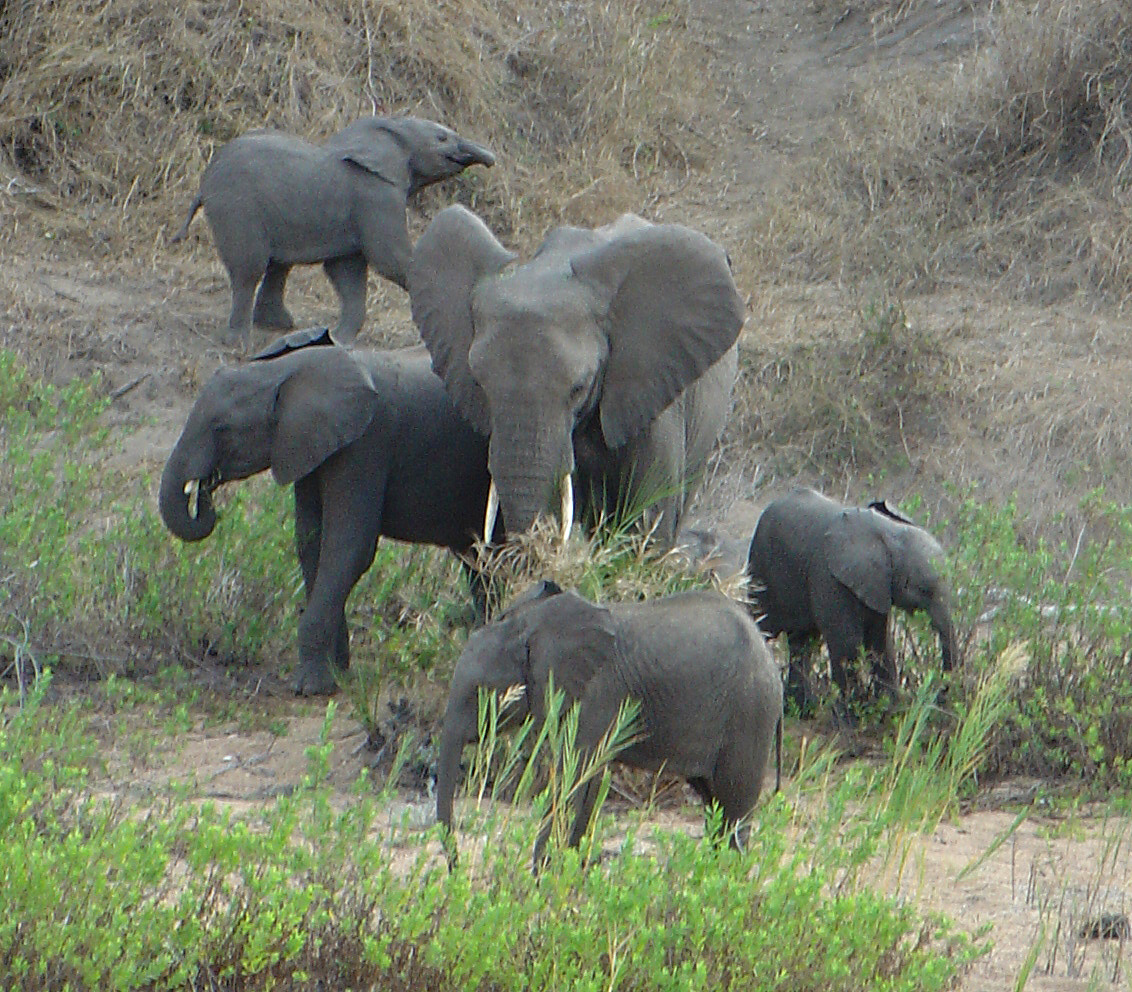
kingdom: Animalia
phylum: Chordata
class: Mammalia
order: Proboscidea
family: Elephantidae
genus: Loxodonta
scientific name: Loxodonta africana
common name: African elephant
